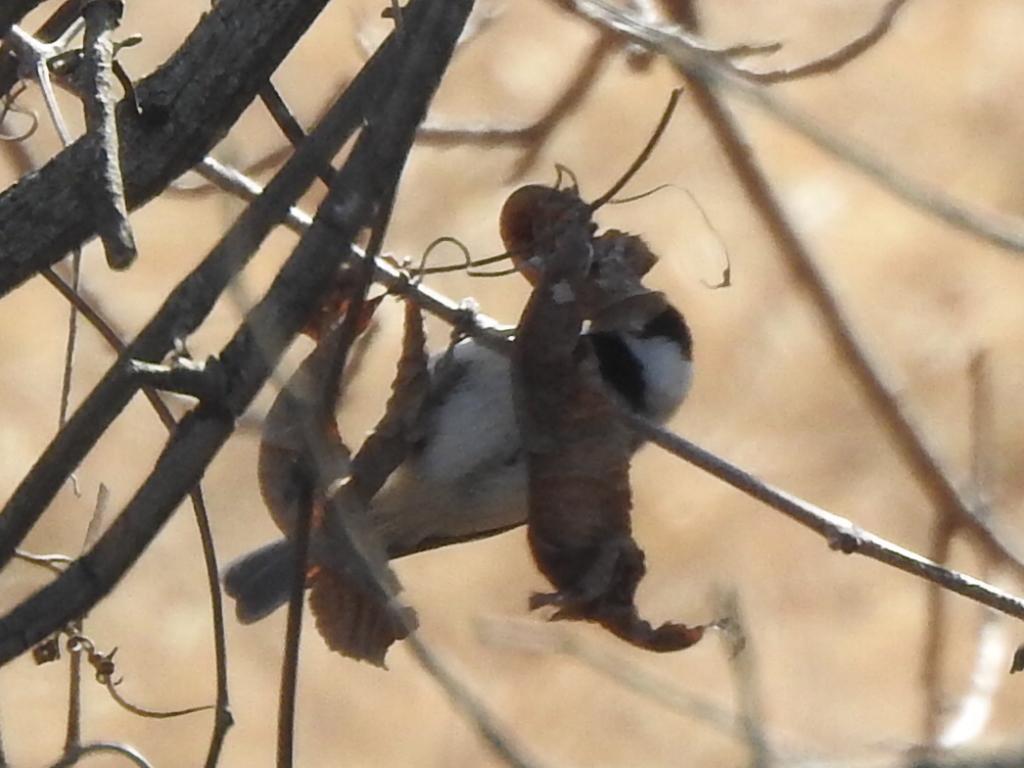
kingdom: Animalia
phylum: Chordata
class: Aves
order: Passeriformes
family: Paridae
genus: Poecile
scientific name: Poecile carolinensis
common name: Carolina chickadee
